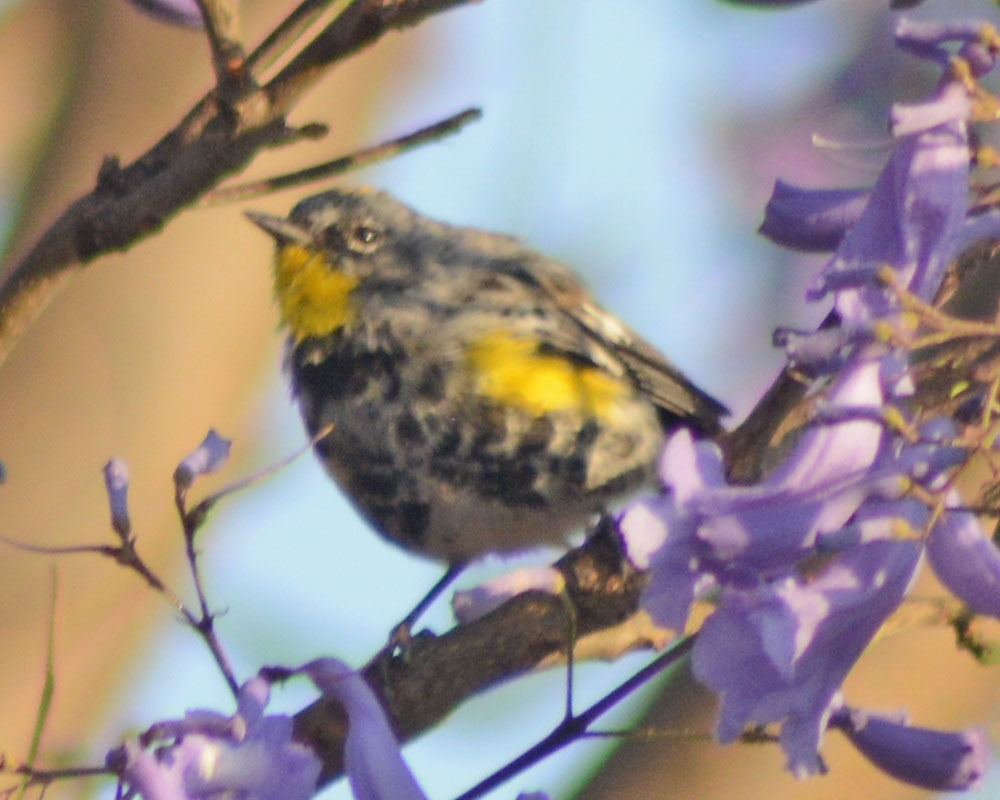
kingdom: Animalia
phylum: Chordata
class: Aves
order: Passeriformes
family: Parulidae
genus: Setophaga
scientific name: Setophaga auduboni
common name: Audubon's warbler
